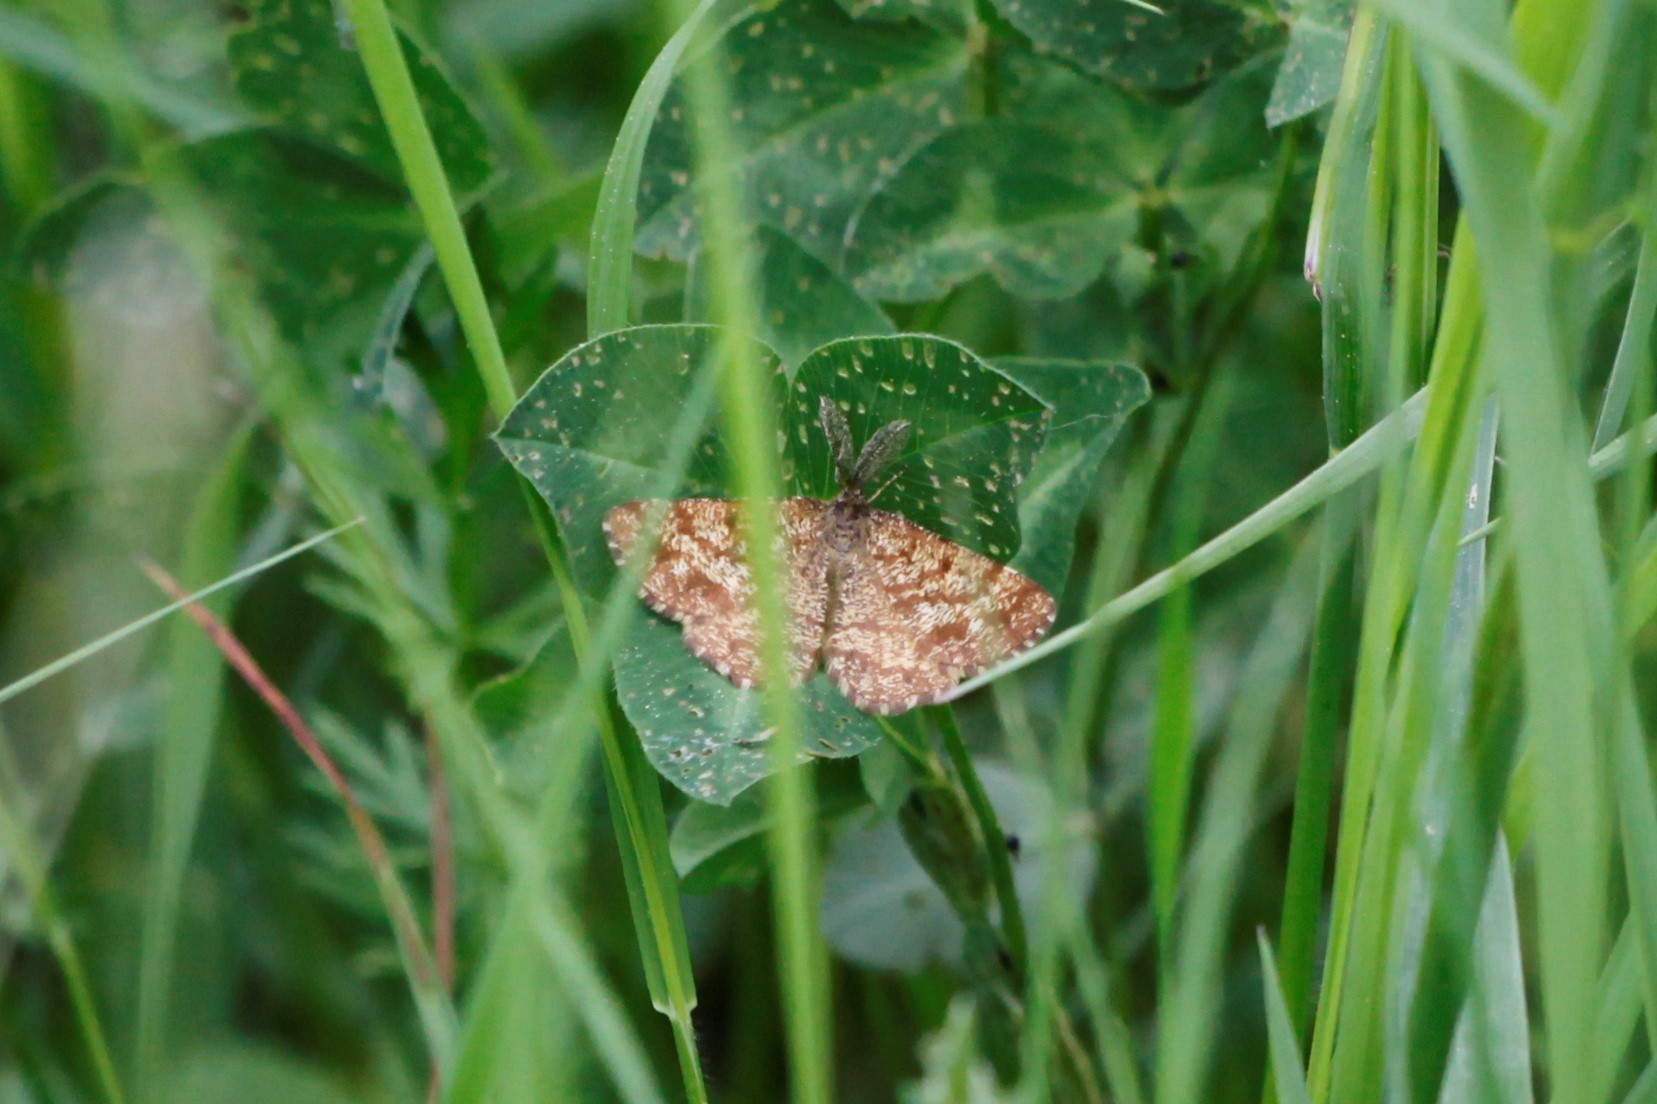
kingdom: Animalia
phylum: Arthropoda
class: Insecta
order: Lepidoptera
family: Geometridae
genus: Ematurga
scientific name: Ematurga atomaria
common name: Common heath
